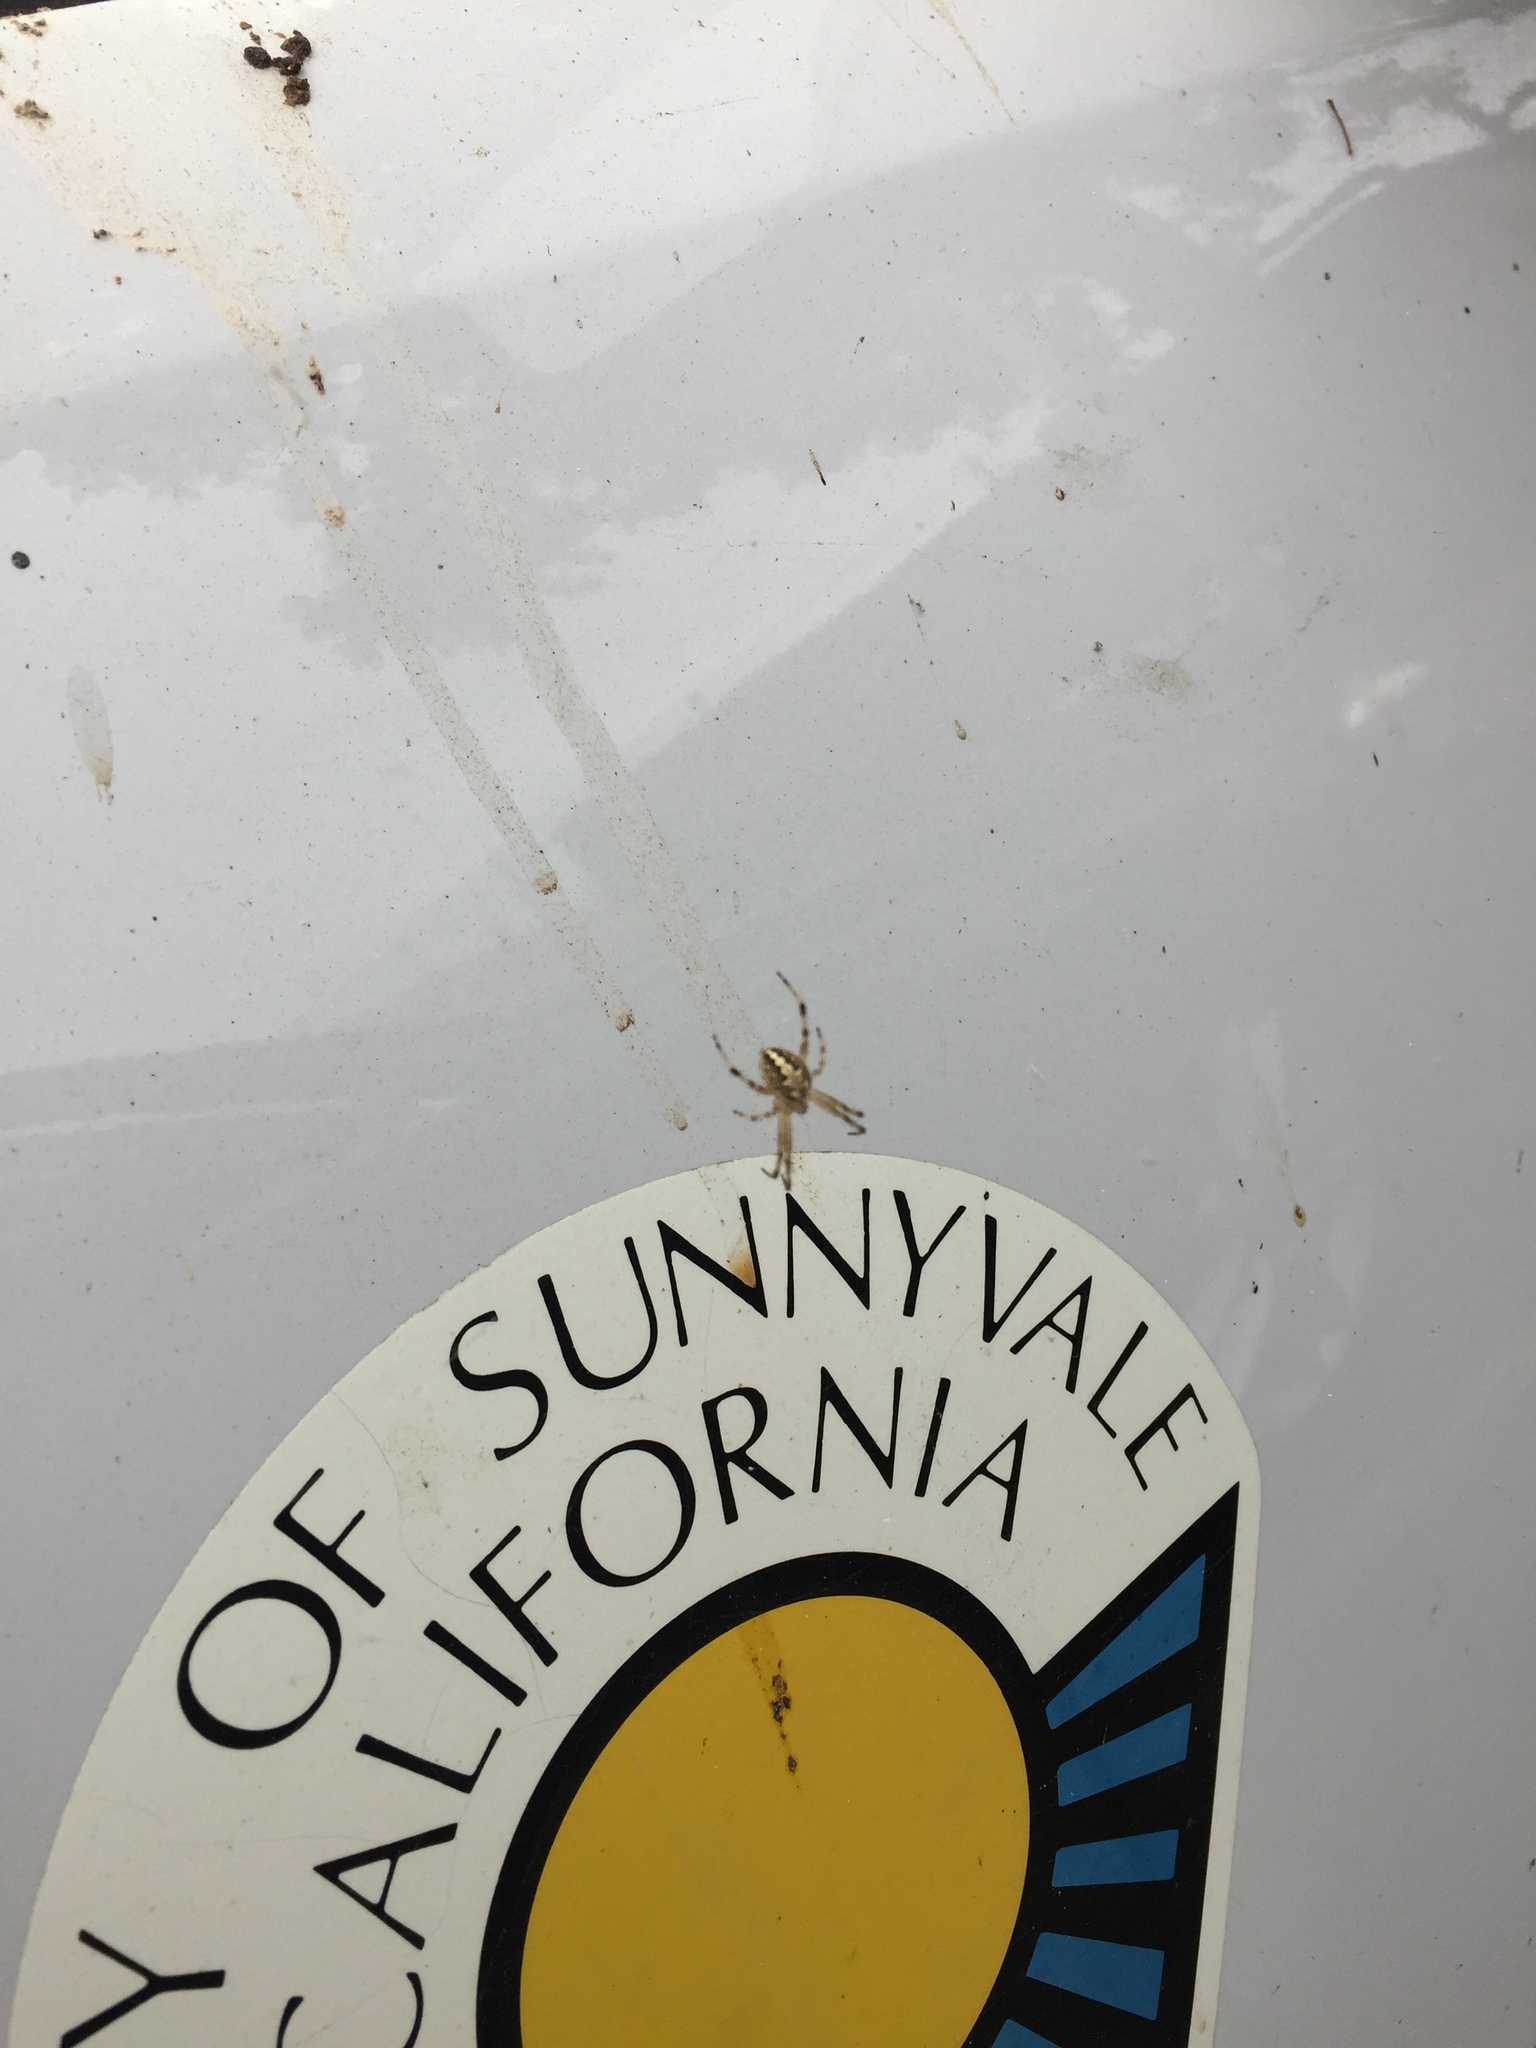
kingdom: Animalia
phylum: Arthropoda
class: Arachnida
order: Araneae
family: Araneidae
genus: Neoscona
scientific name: Neoscona oaxacensis
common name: Orb weavers
